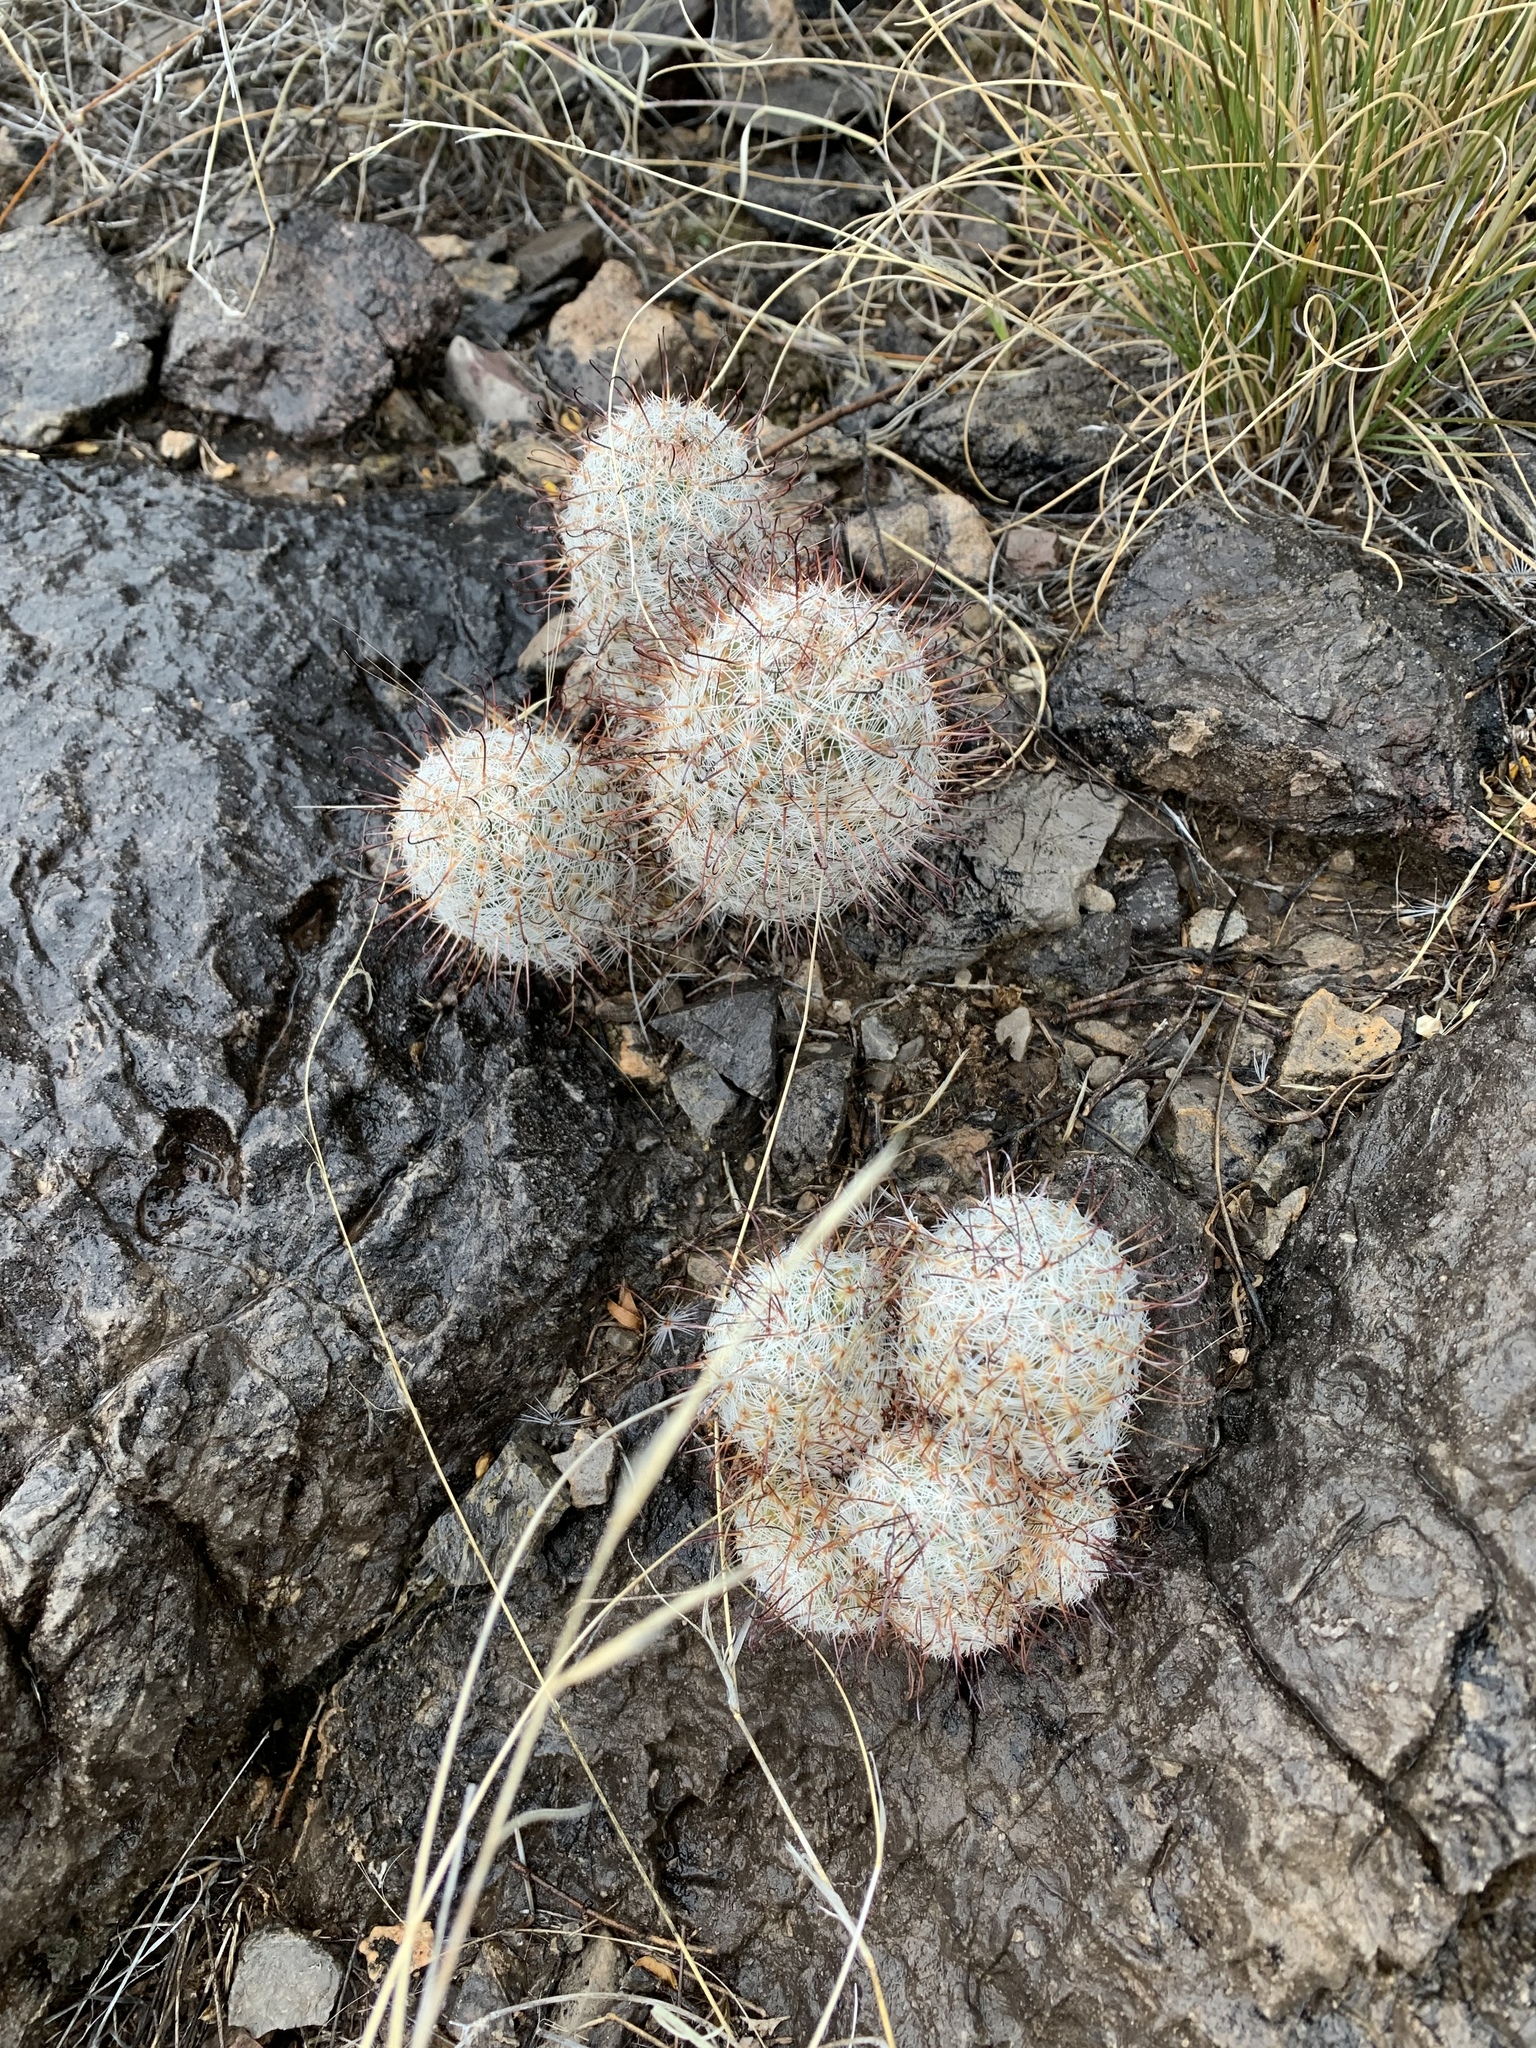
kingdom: Plantae
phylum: Tracheophyta
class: Magnoliopsida
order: Caryophyllales
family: Cactaceae
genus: Cochemiea
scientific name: Cochemiea grahamii
